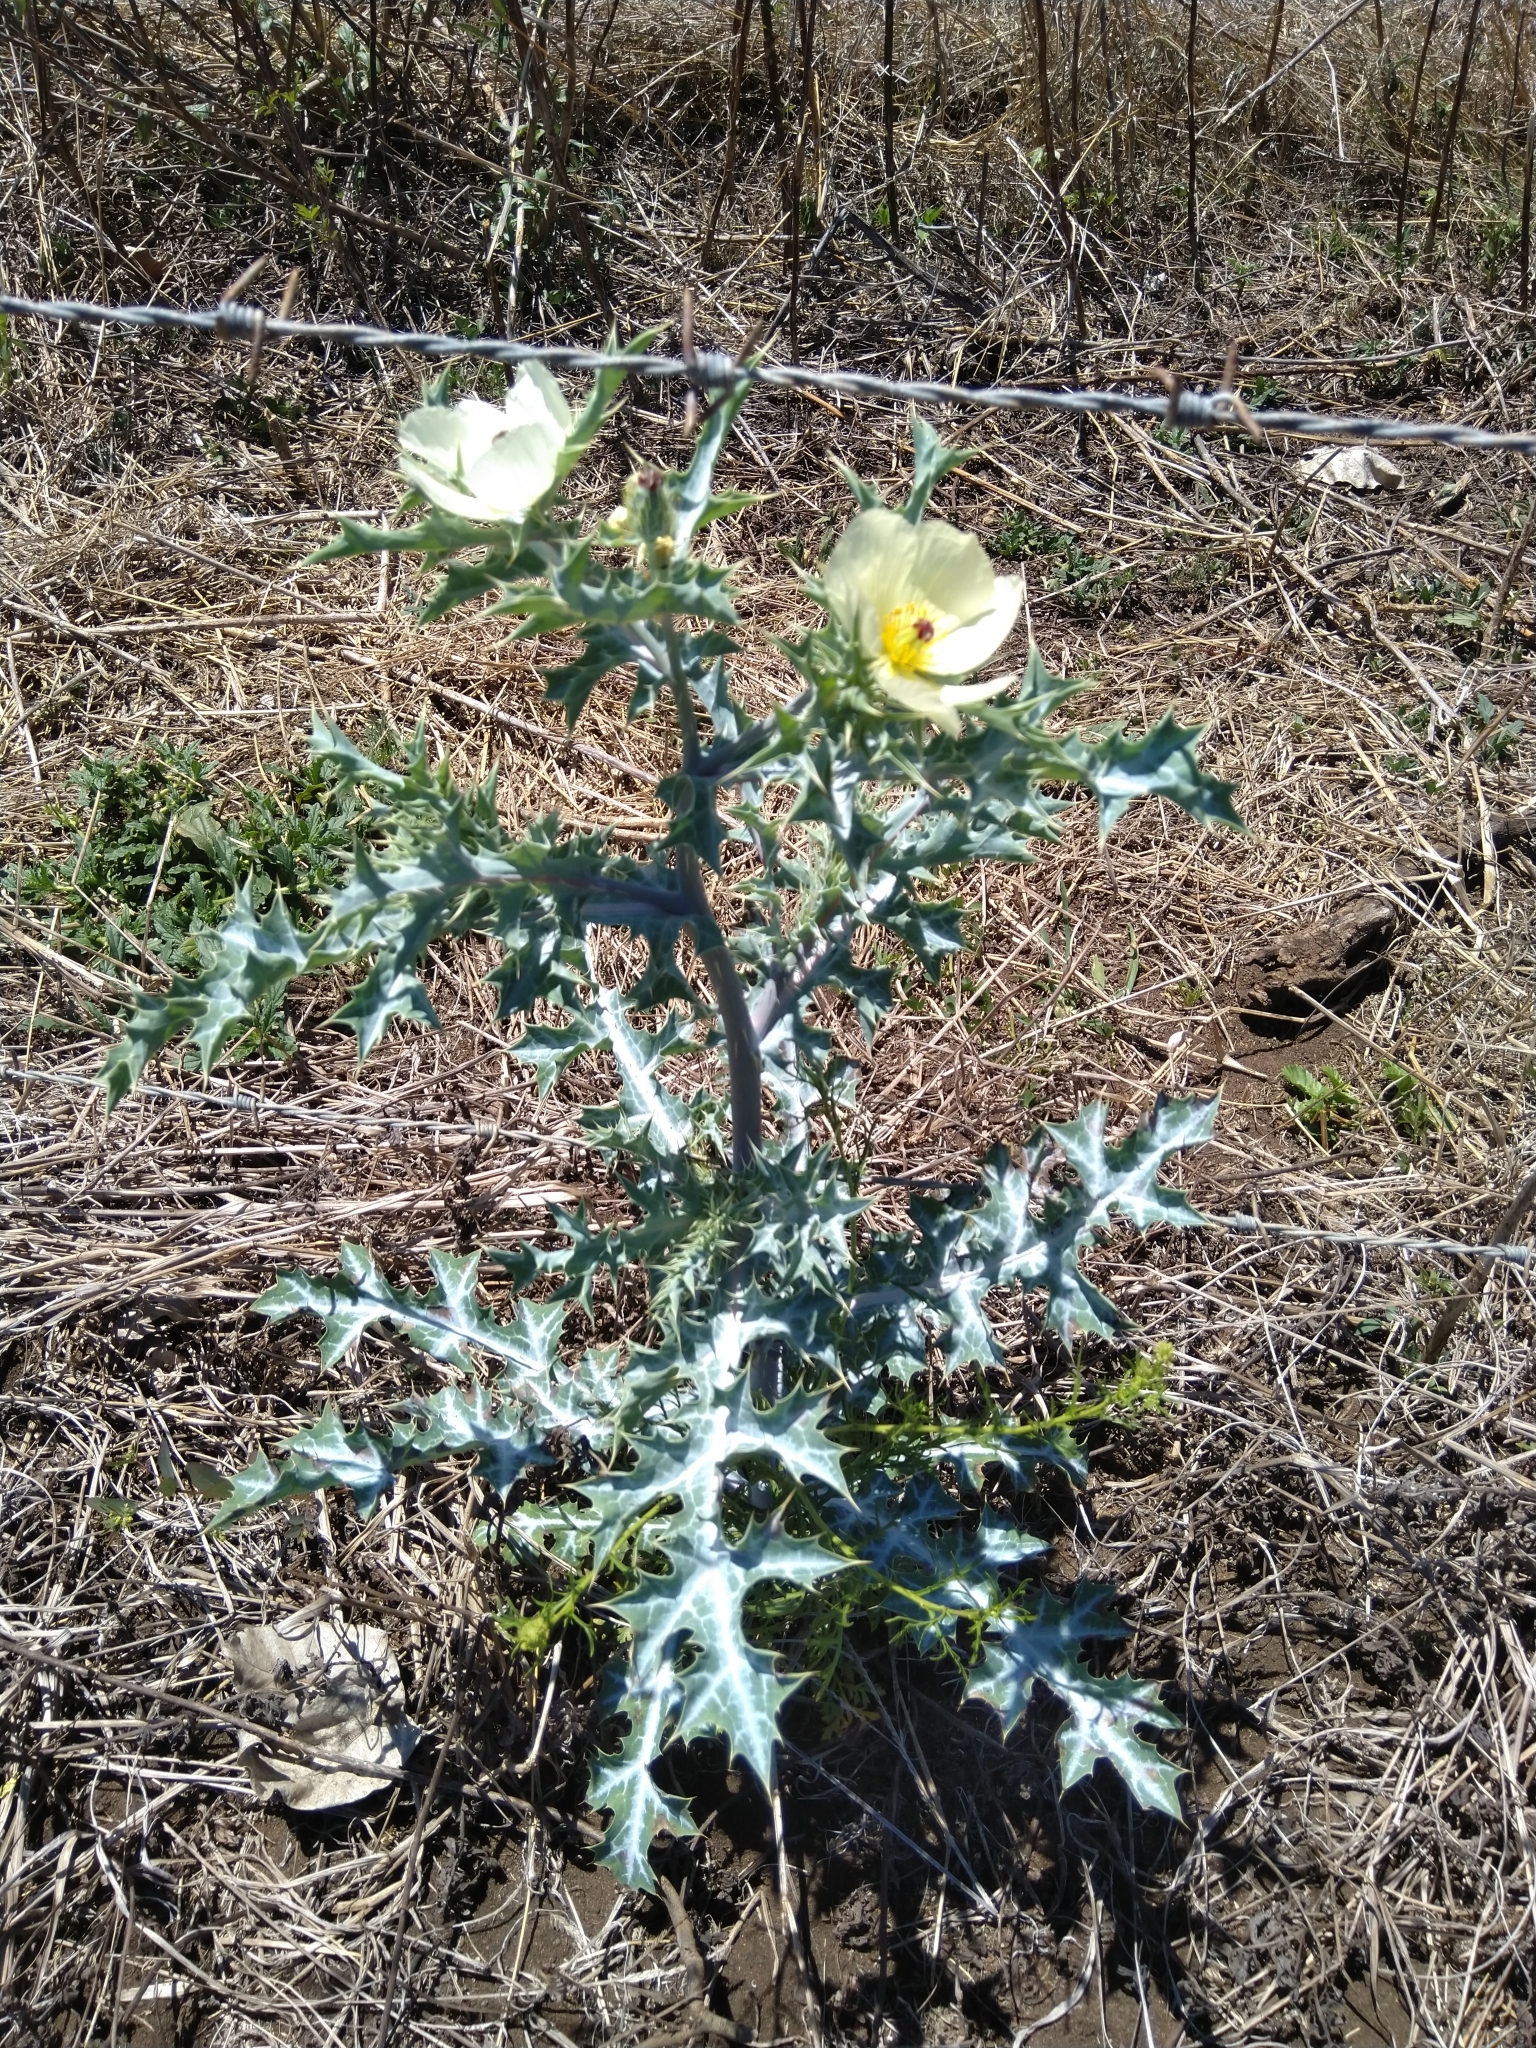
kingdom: Plantae
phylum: Tracheophyta
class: Magnoliopsida
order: Ranunculales
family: Papaveraceae
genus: Argemone
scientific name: Argemone ochroleuca
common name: White-flower mexican-poppy
